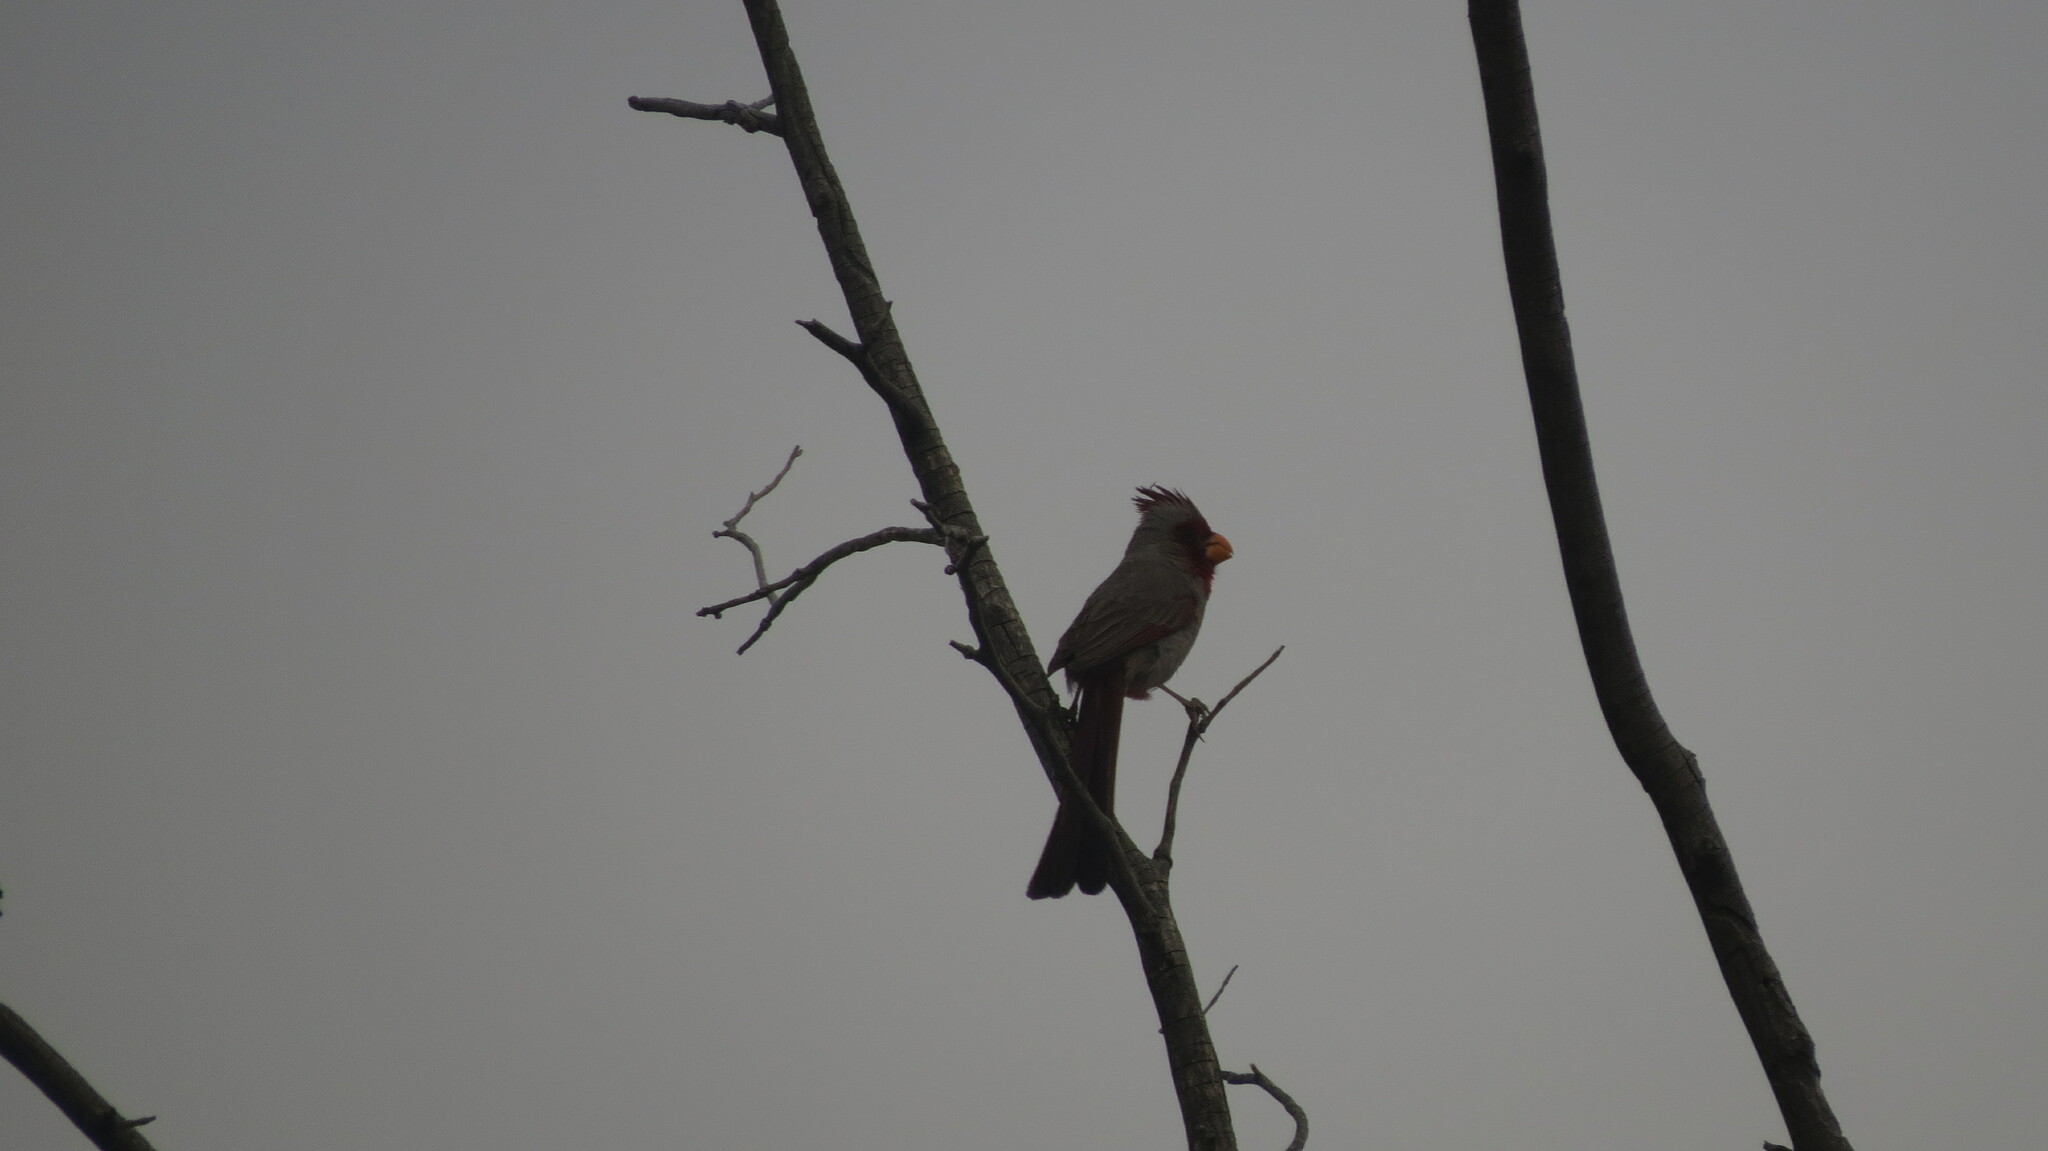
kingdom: Animalia
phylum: Chordata
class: Aves
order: Passeriformes
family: Cardinalidae
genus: Cardinalis
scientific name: Cardinalis sinuatus
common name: Pyrrhuloxia
